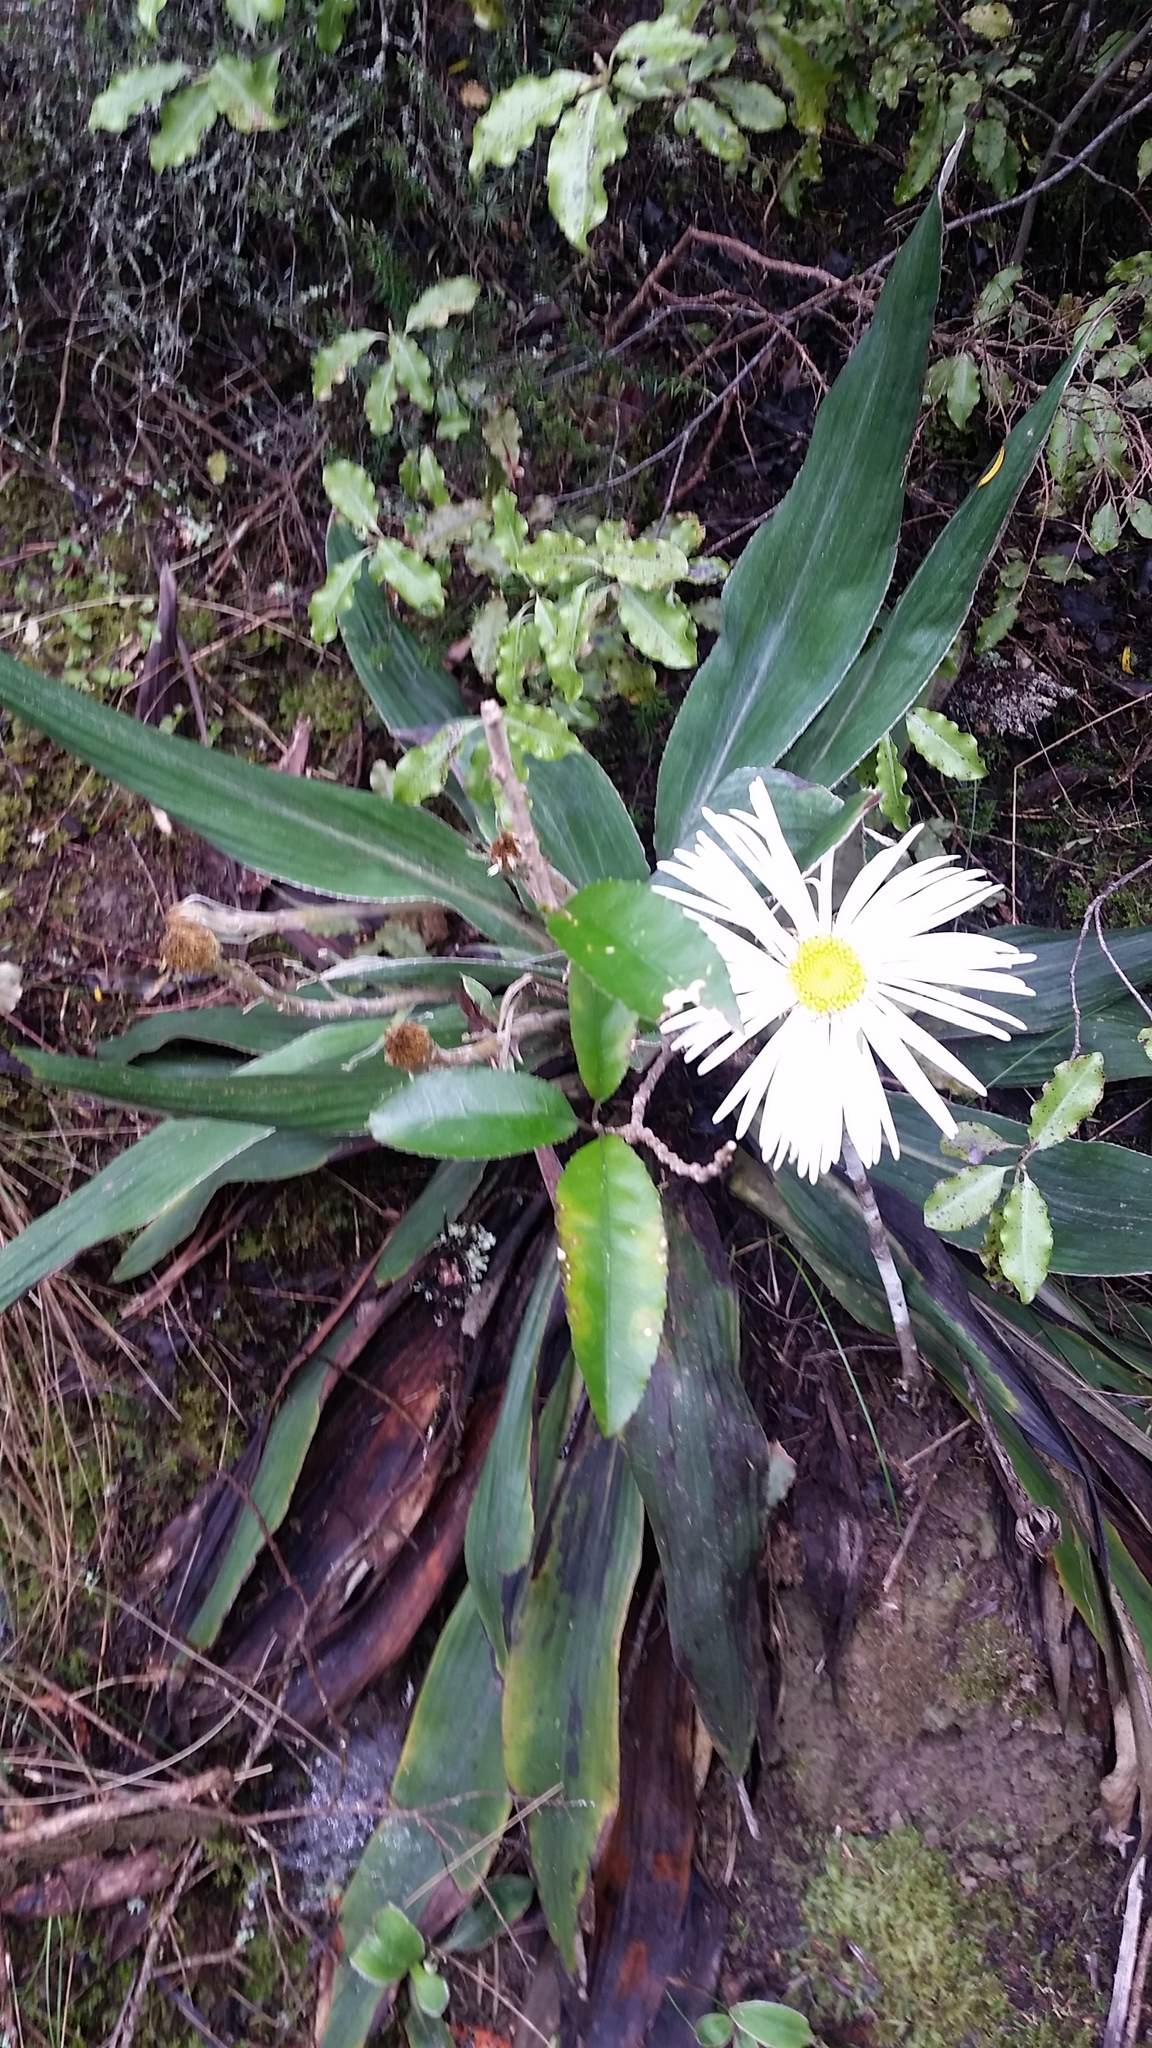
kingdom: Plantae
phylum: Tracheophyta
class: Magnoliopsida
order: Asterales
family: Asteraceae
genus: Celmisia
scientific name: Celmisia hookeri
